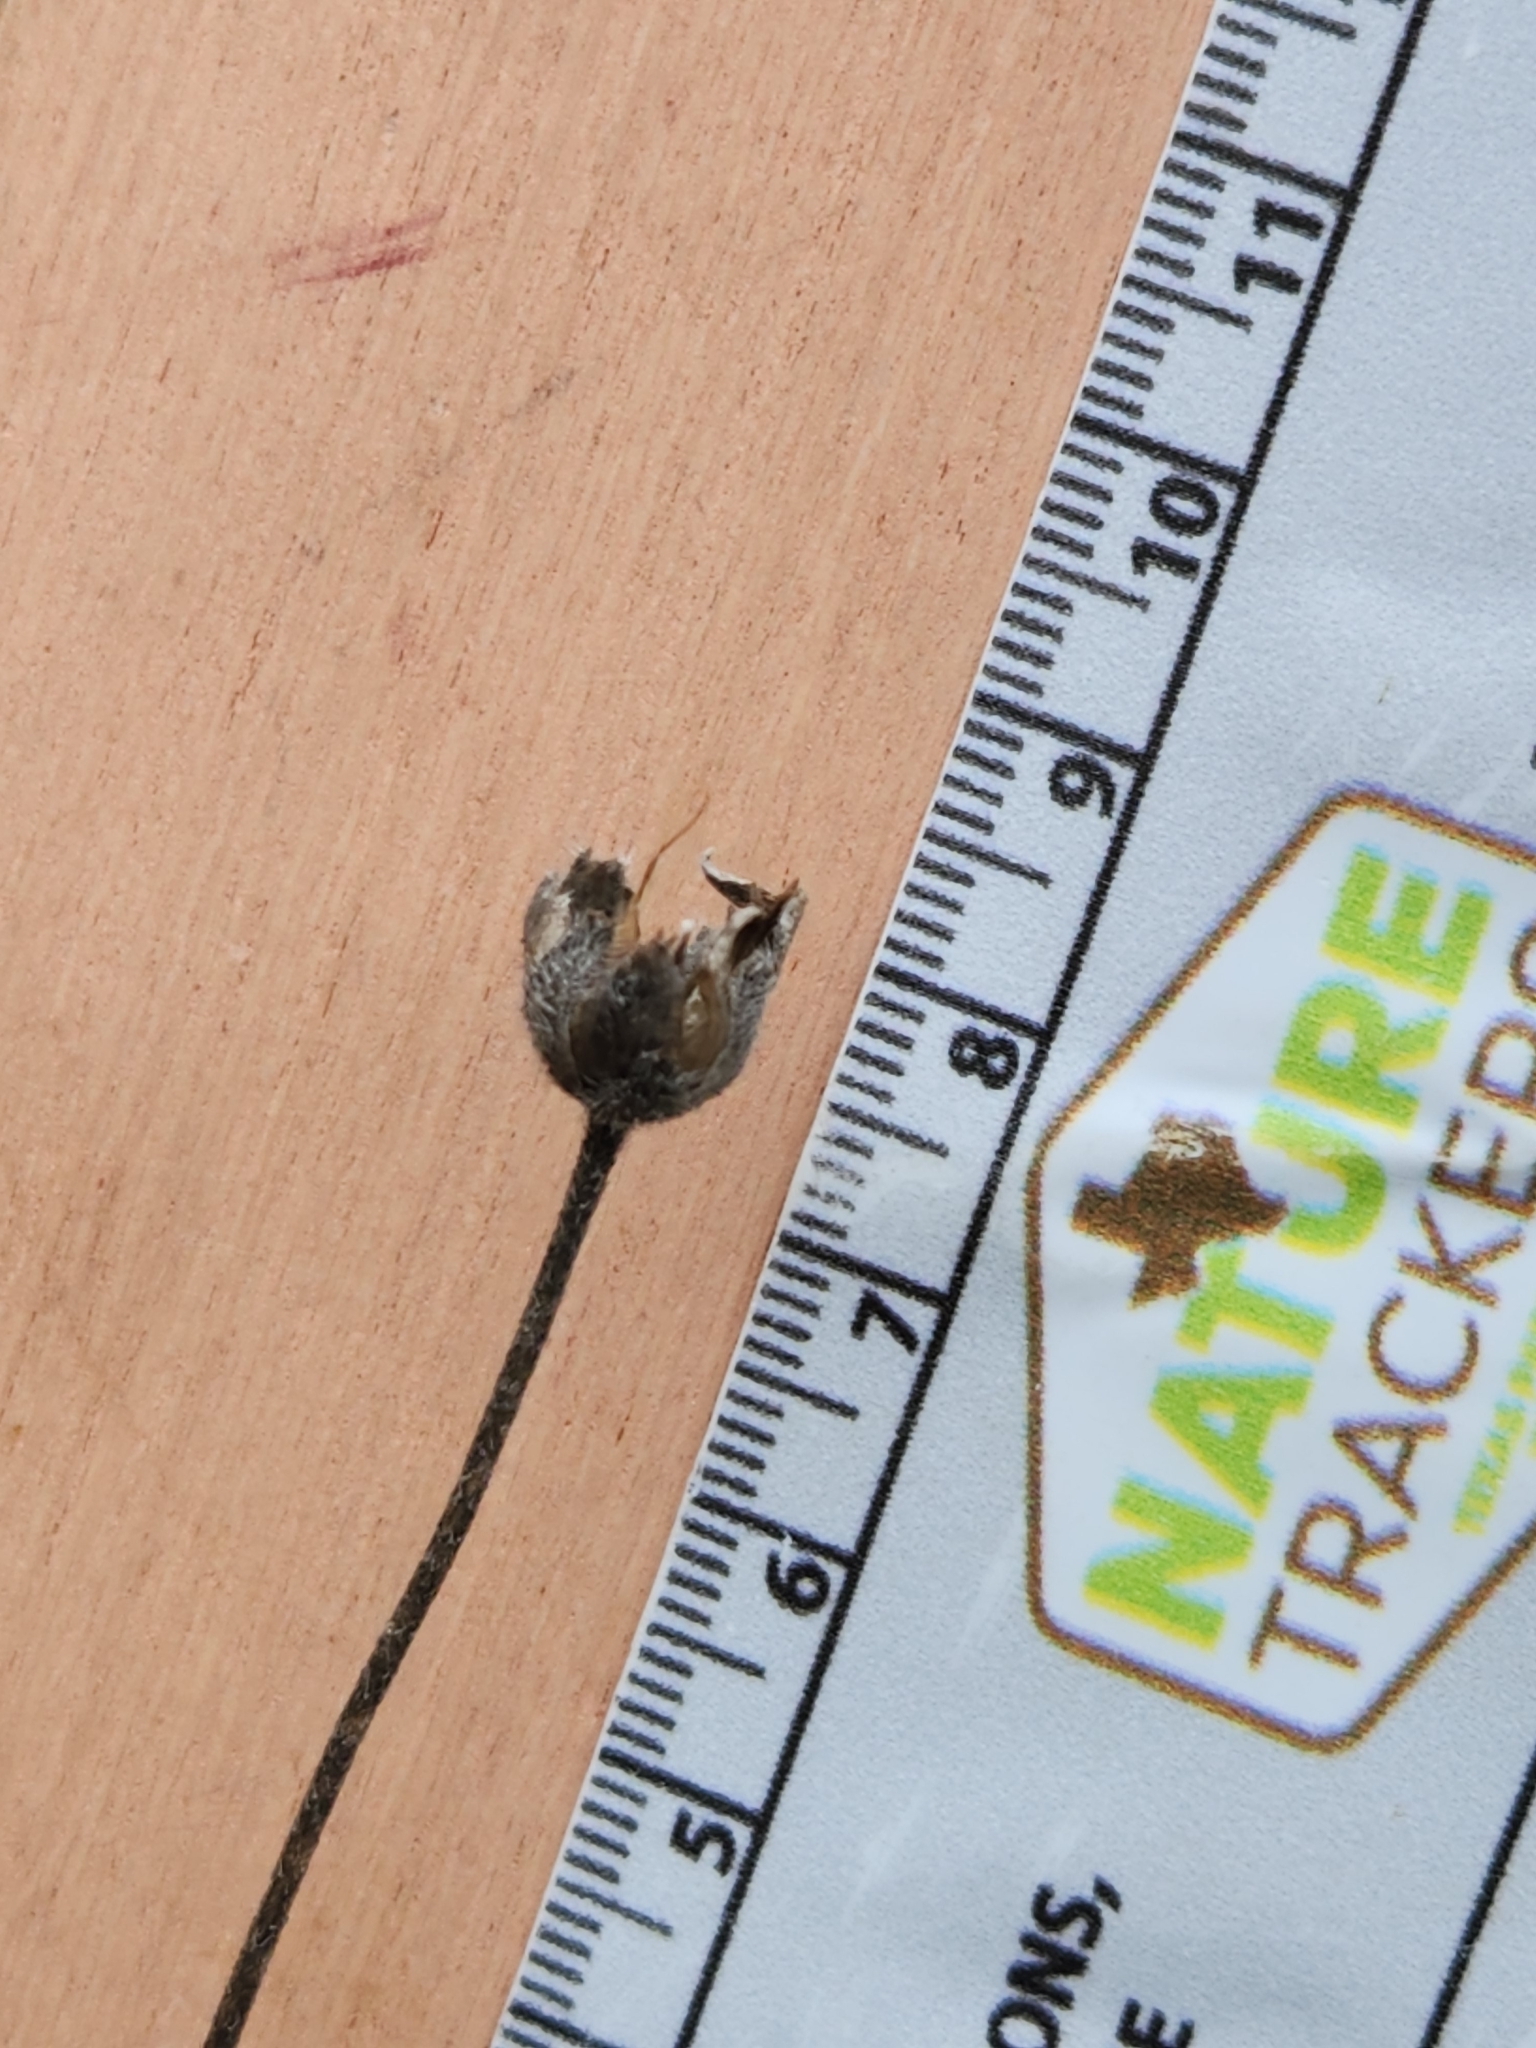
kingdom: Plantae
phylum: Tracheophyta
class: Magnoliopsida
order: Asterales
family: Asteraceae
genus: Wedelia
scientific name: Wedelia acapulcensis
